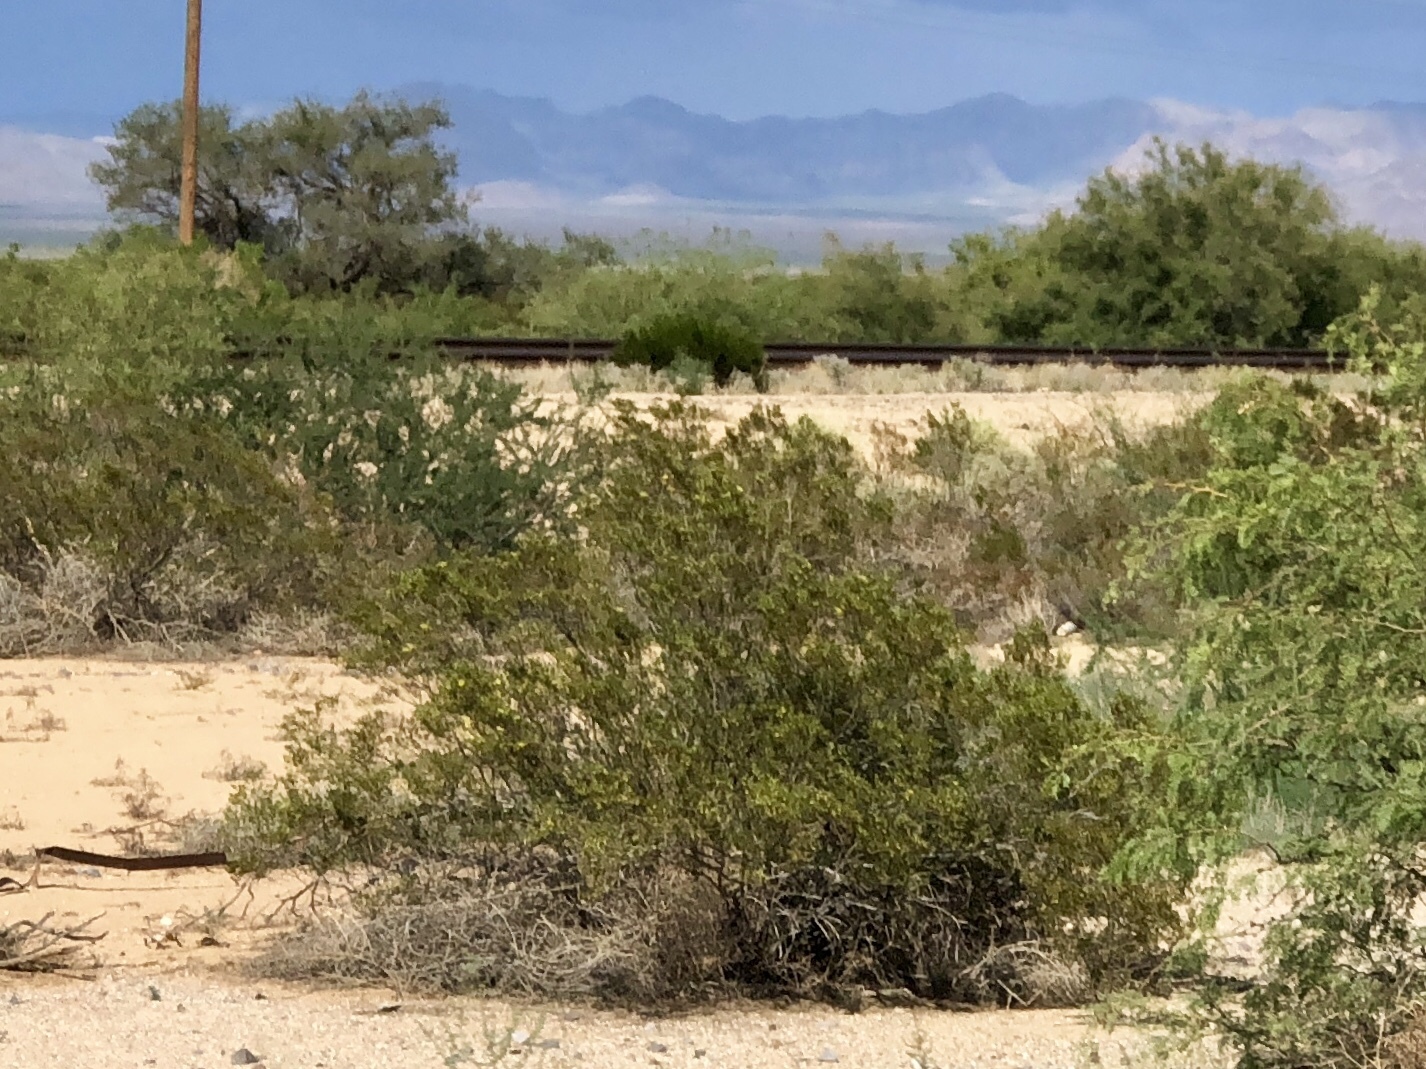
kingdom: Plantae
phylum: Tracheophyta
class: Magnoliopsida
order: Zygophyllales
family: Zygophyllaceae
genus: Larrea
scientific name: Larrea tridentata
